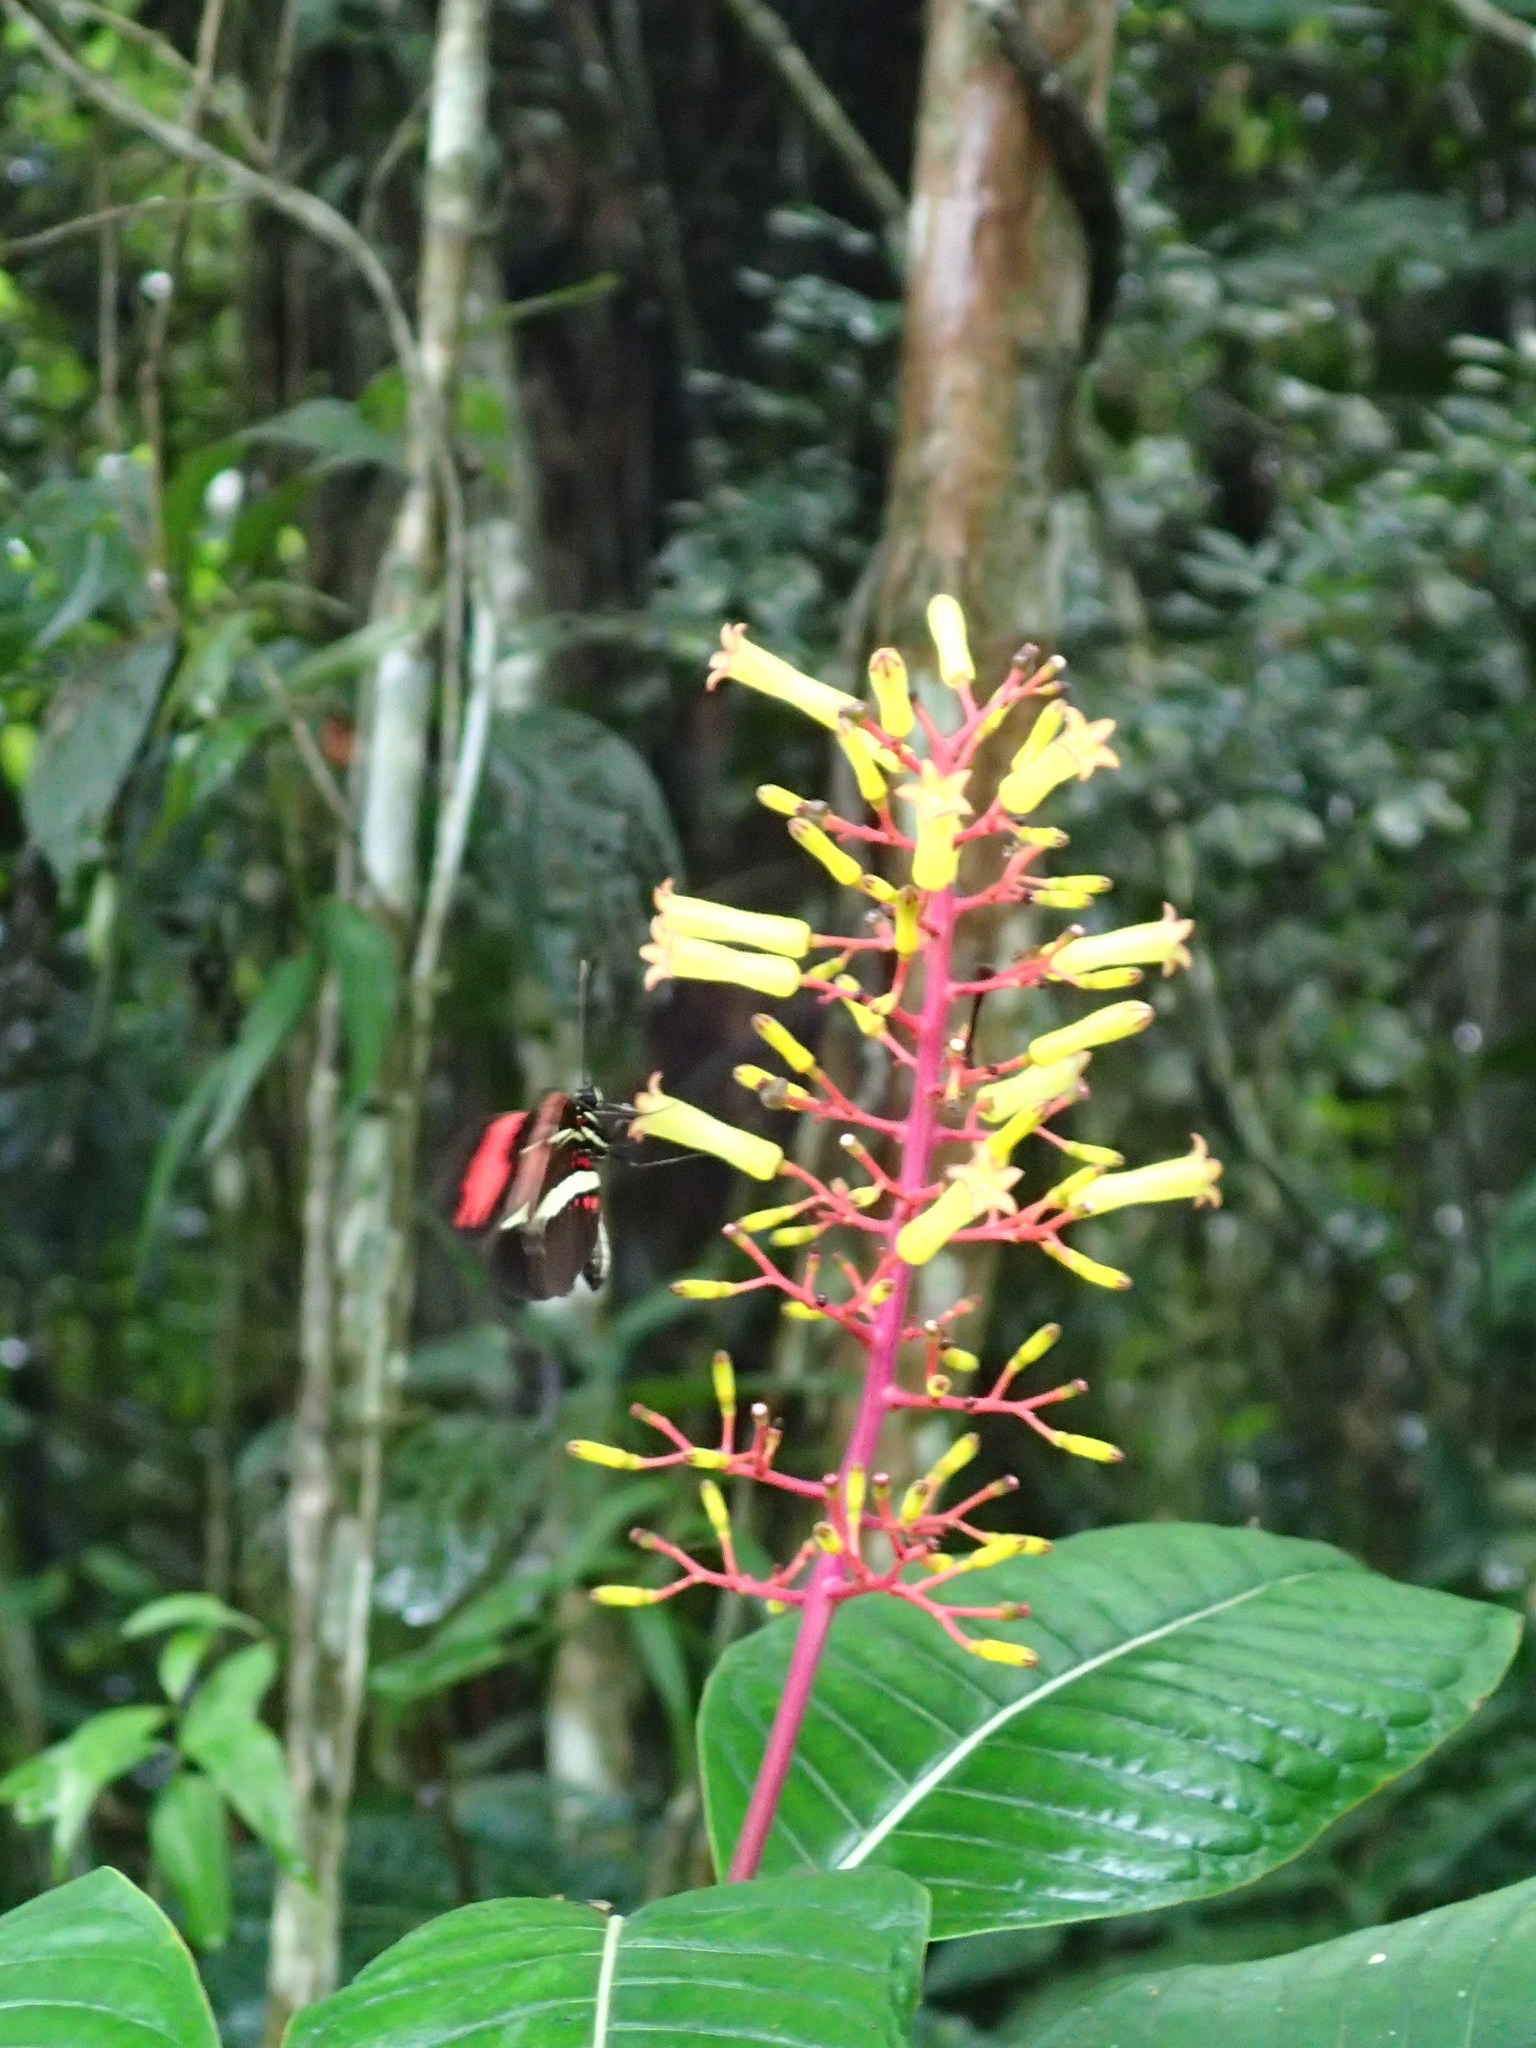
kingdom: Plantae
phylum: Tracheophyta
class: Magnoliopsida
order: Gentianales
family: Rubiaceae
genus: Palicourea
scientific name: Palicourea macrobotrys
